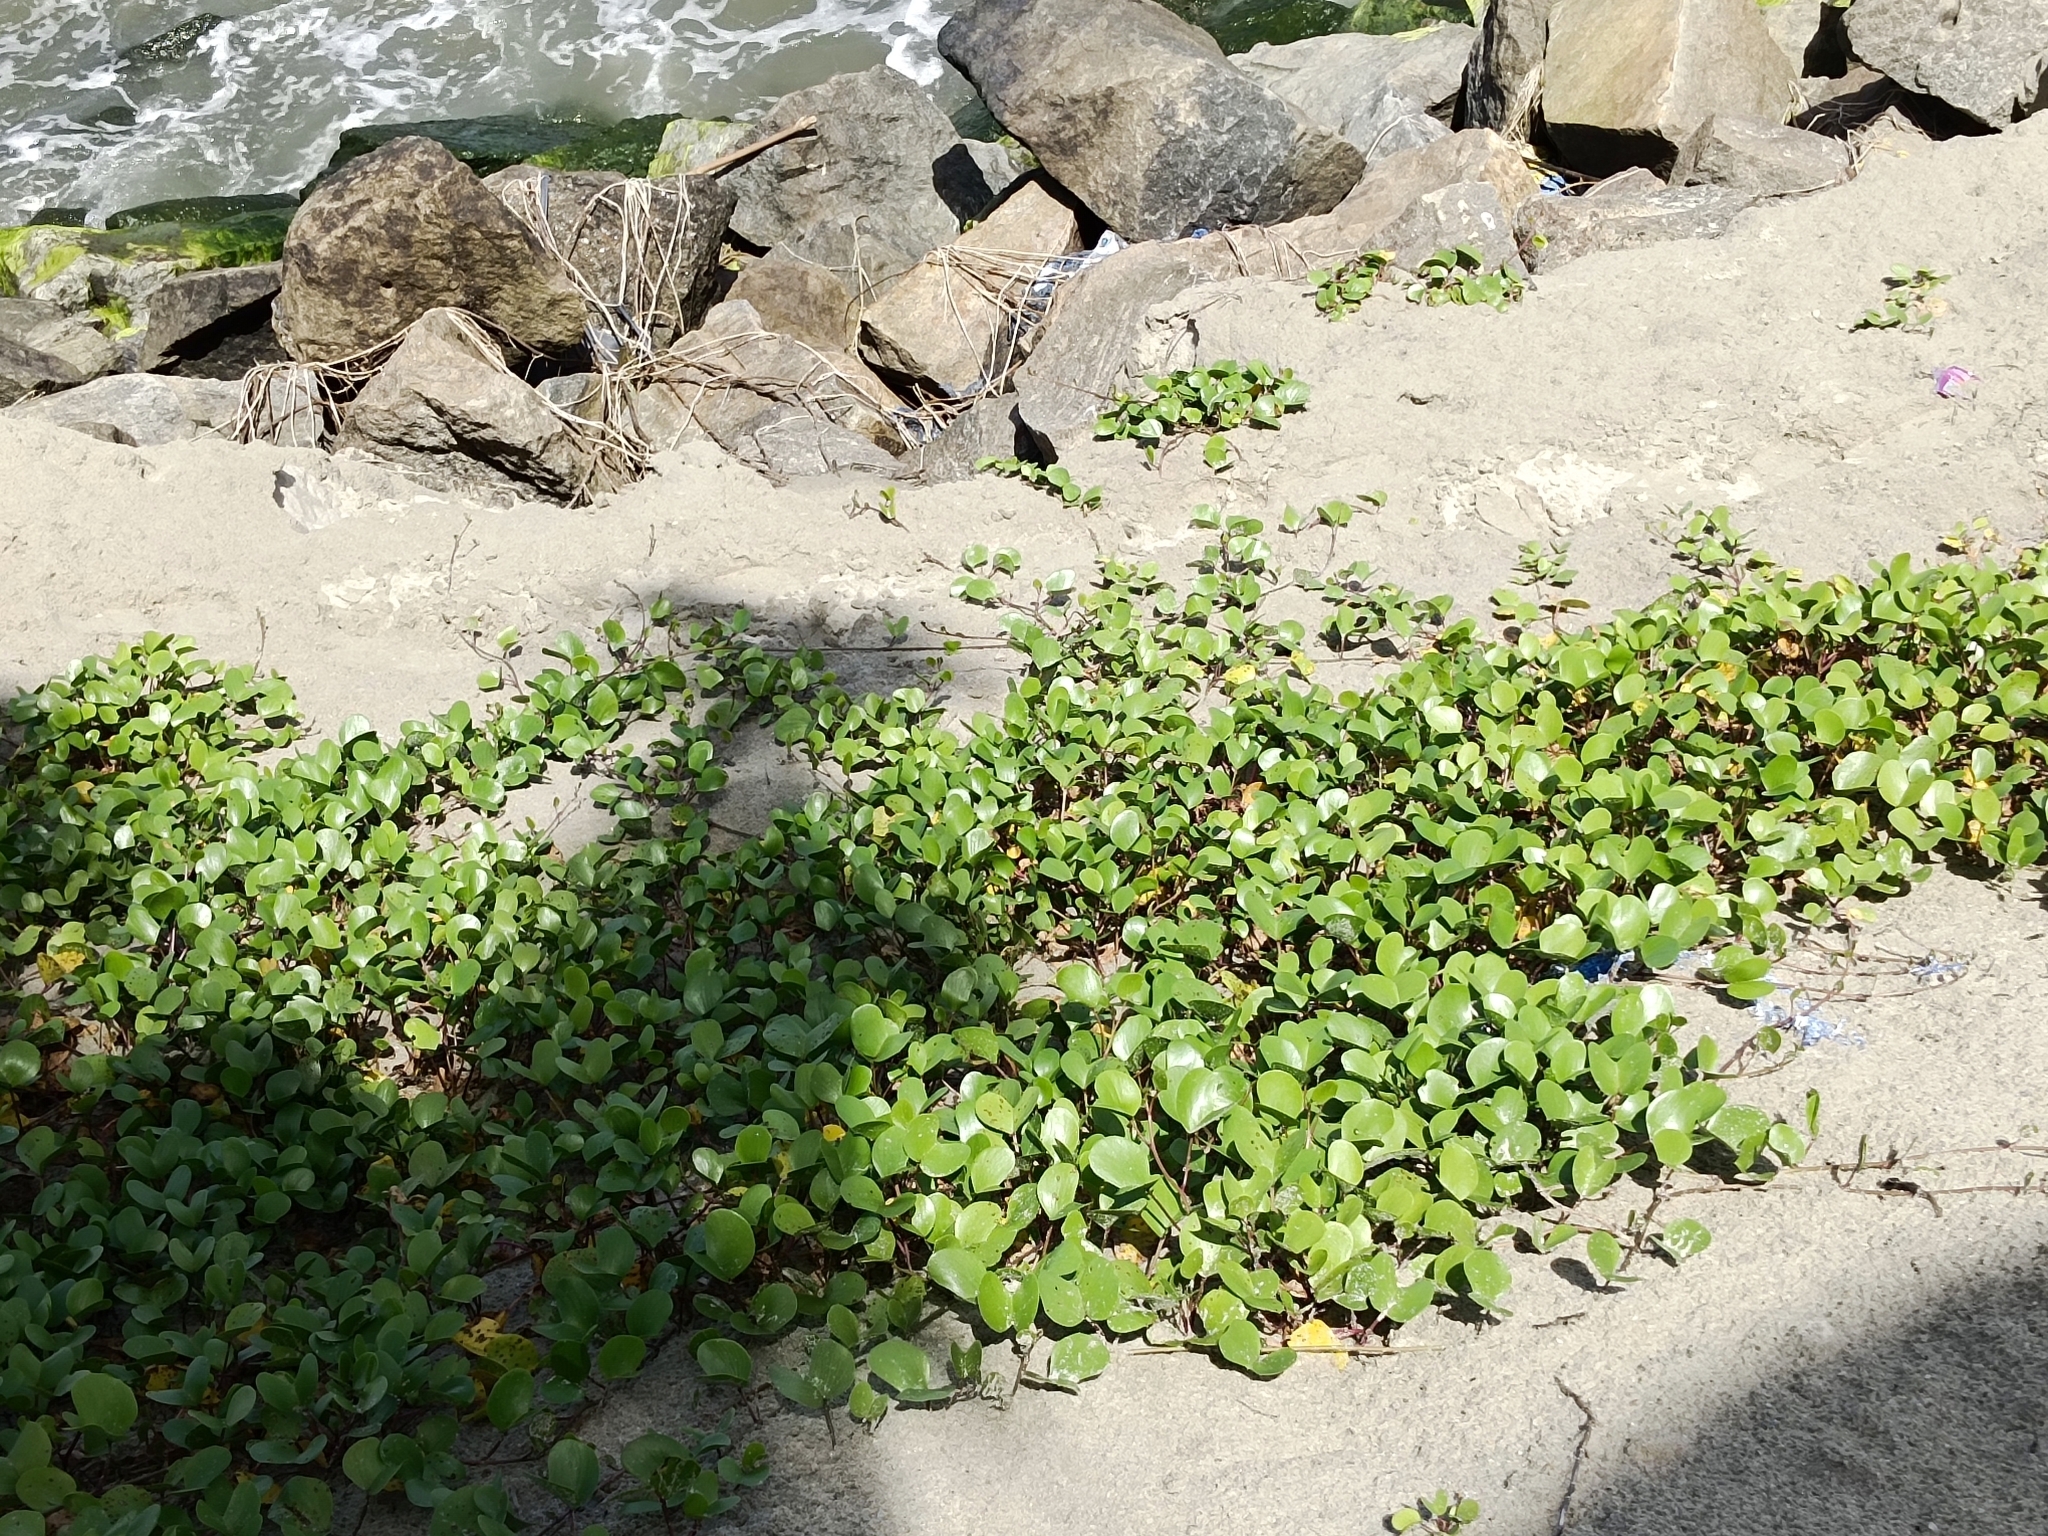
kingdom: Plantae
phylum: Tracheophyta
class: Magnoliopsida
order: Solanales
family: Convolvulaceae
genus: Ipomoea
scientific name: Ipomoea pes-caprae
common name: Beach morning glory
